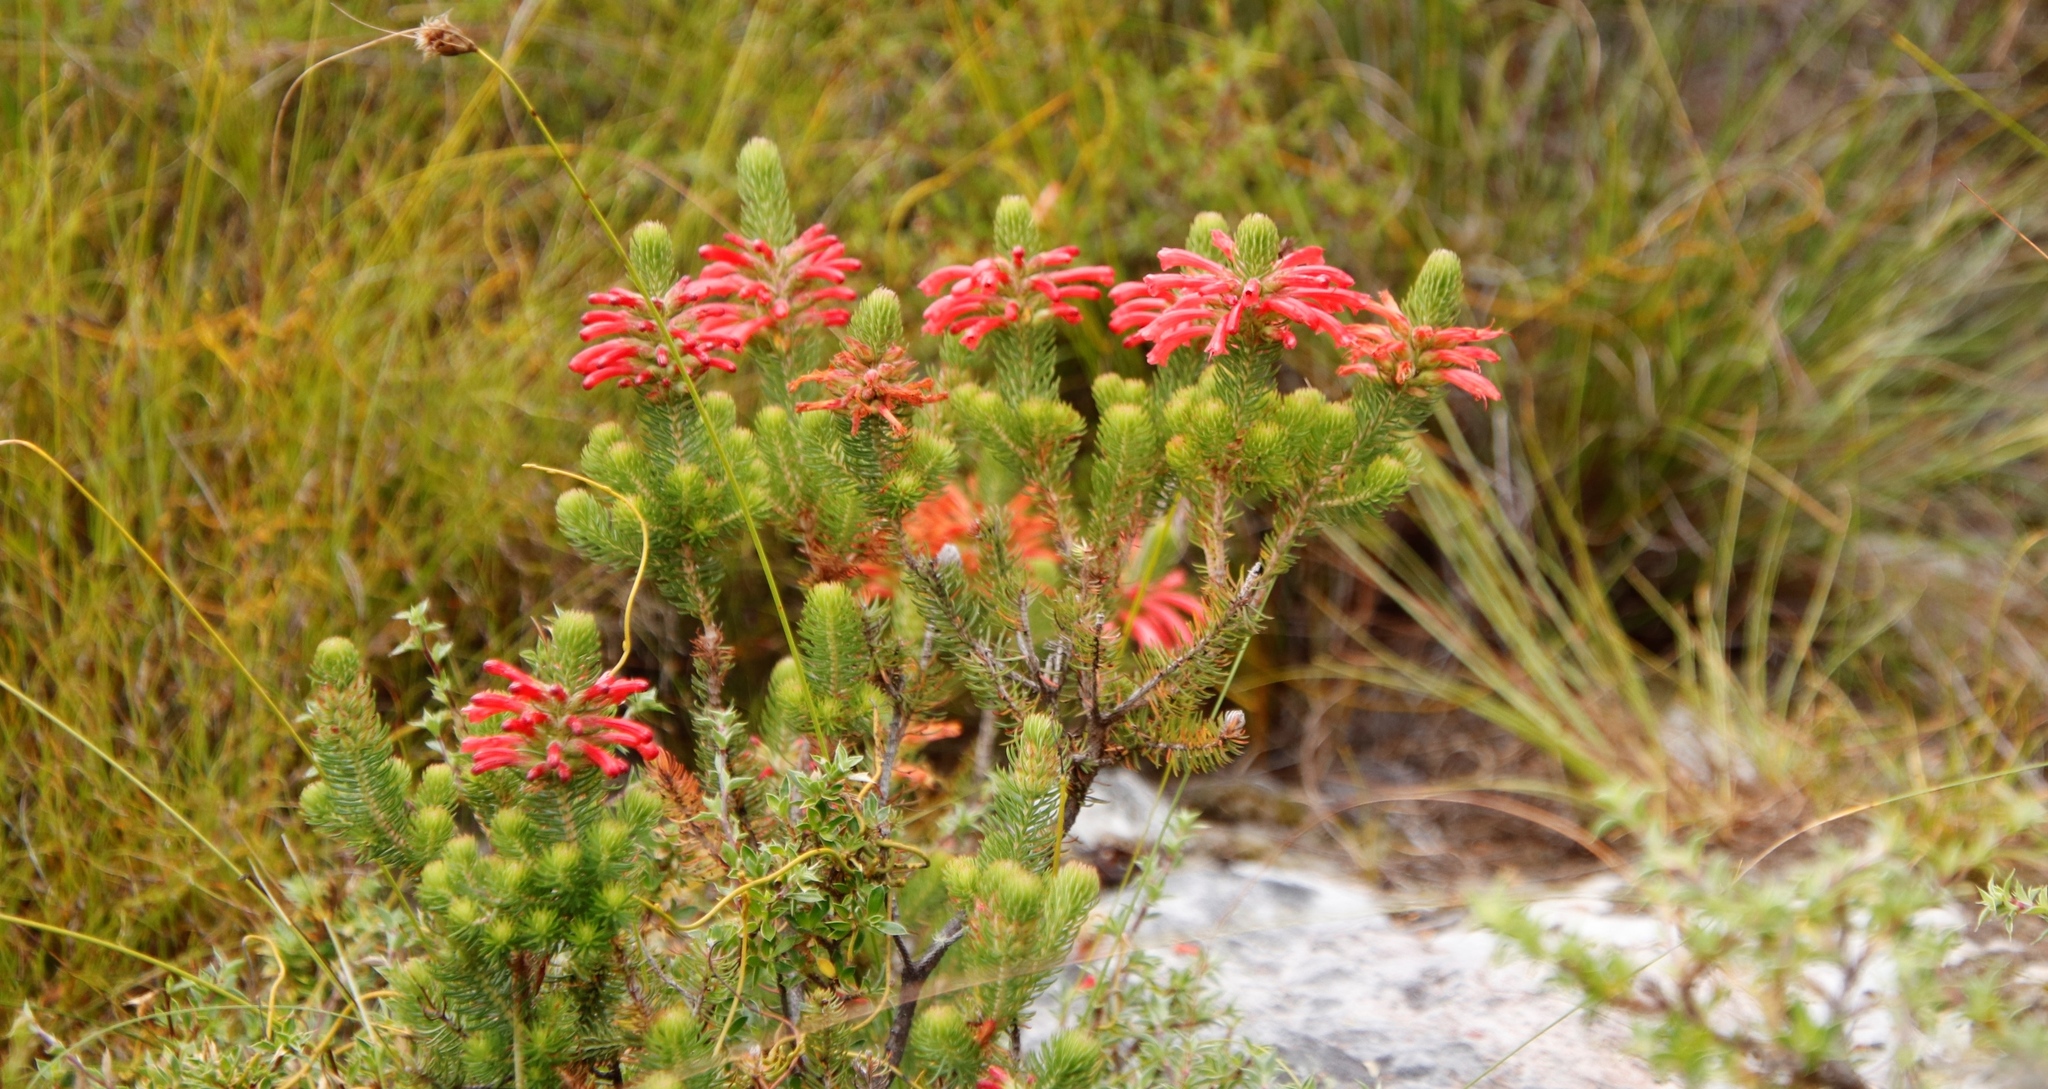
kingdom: Plantae
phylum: Tracheophyta
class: Magnoliopsida
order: Ericales
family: Ericaceae
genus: Erica
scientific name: Erica abietina
